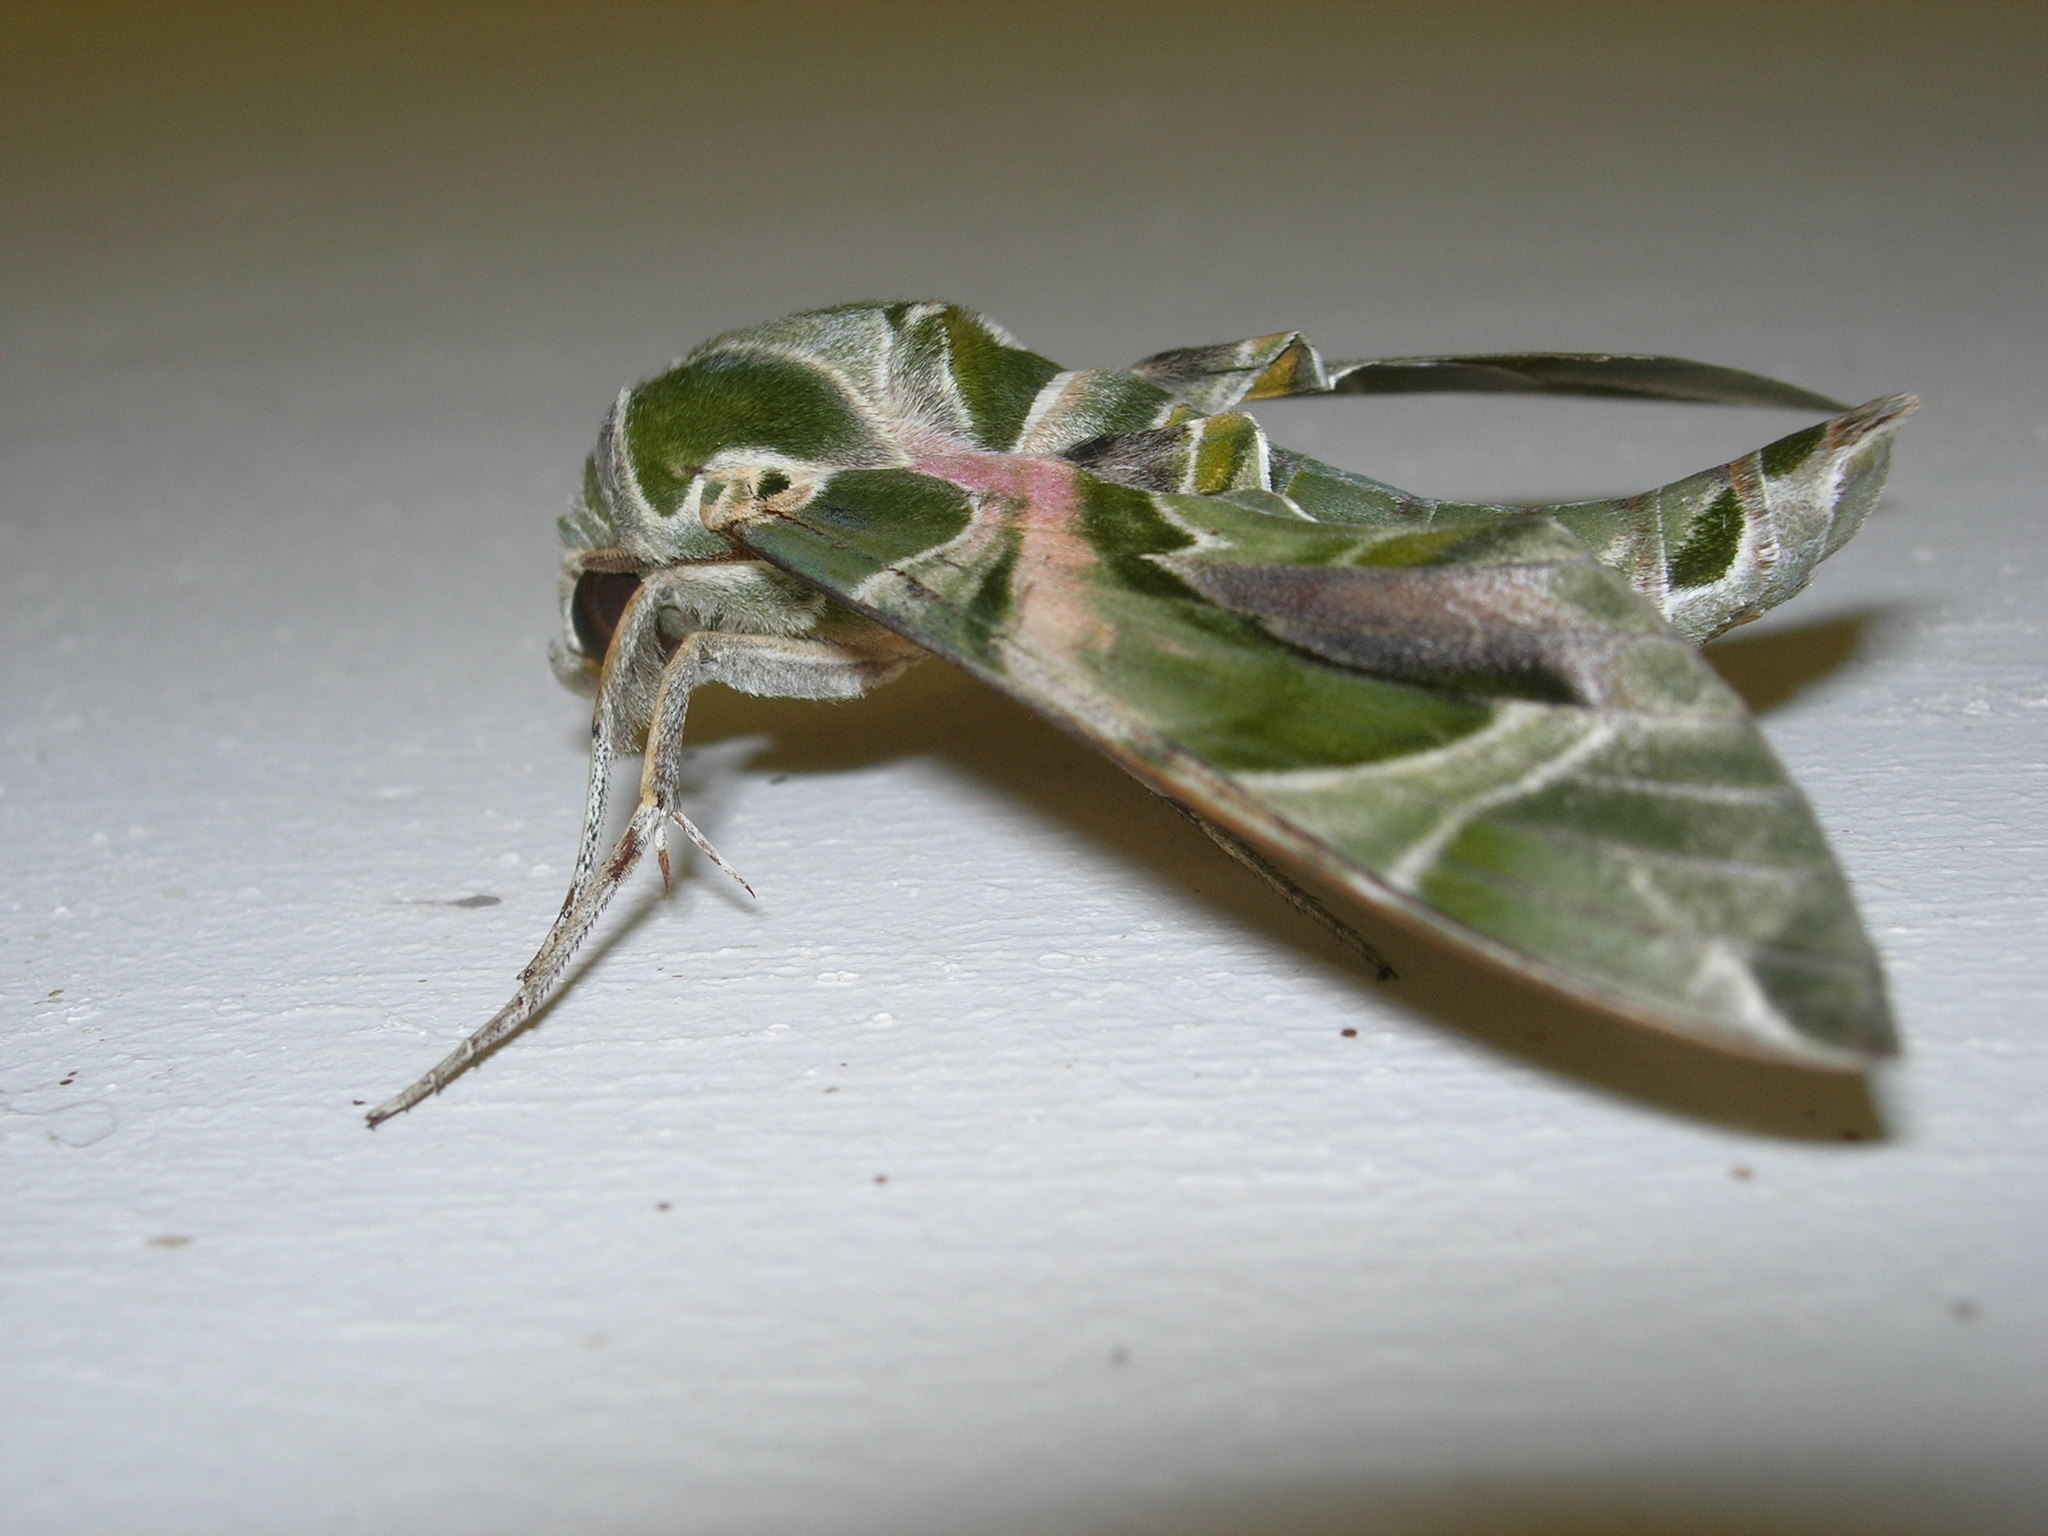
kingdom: Animalia
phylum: Arthropoda
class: Insecta
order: Lepidoptera
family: Sphingidae
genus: Daphnis
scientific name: Daphnis nerii
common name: Oleander hawk-moth
